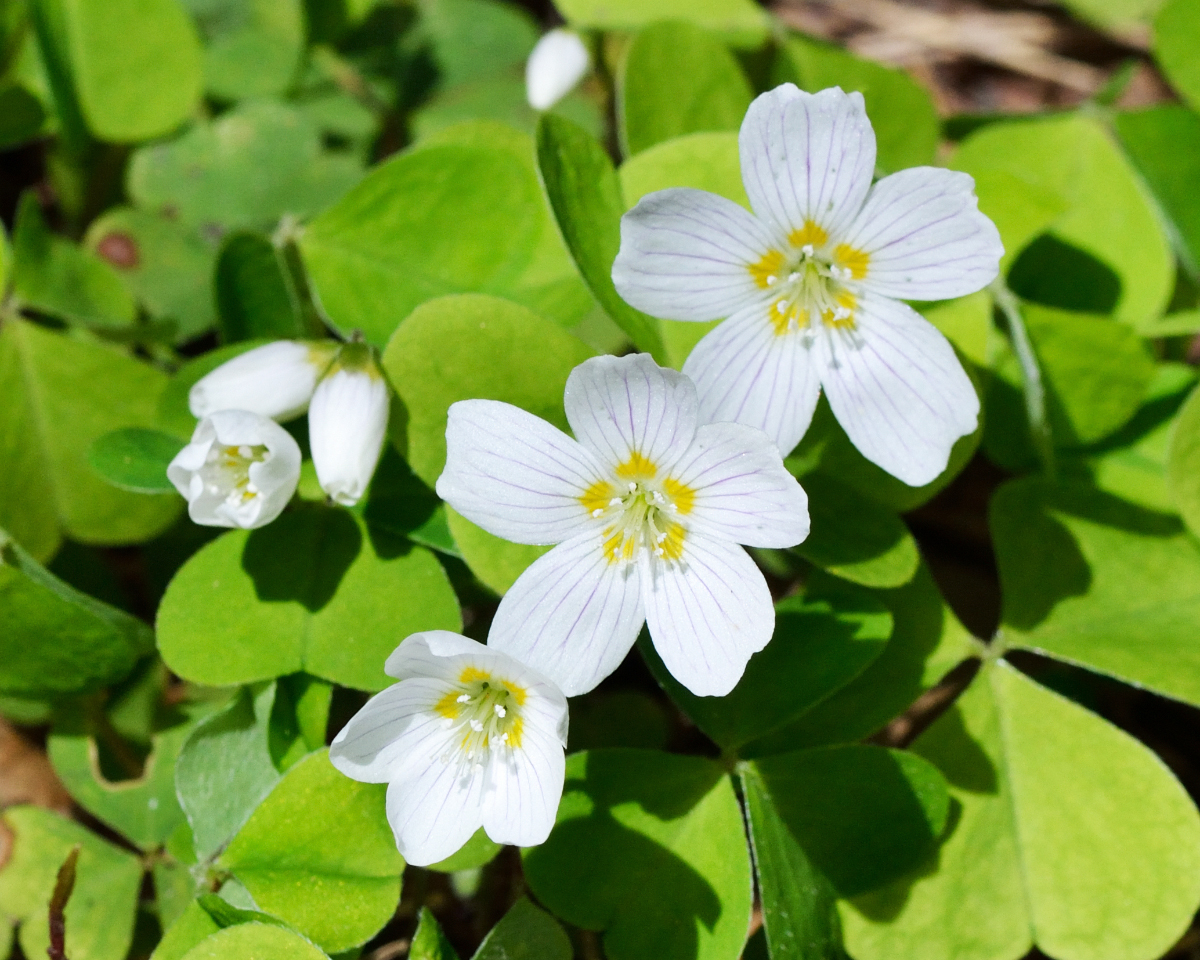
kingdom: Plantae
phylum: Tracheophyta
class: Magnoliopsida
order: Oxalidales
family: Oxalidaceae
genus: Oxalis
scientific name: Oxalis acetosella
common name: Wood-sorrel
